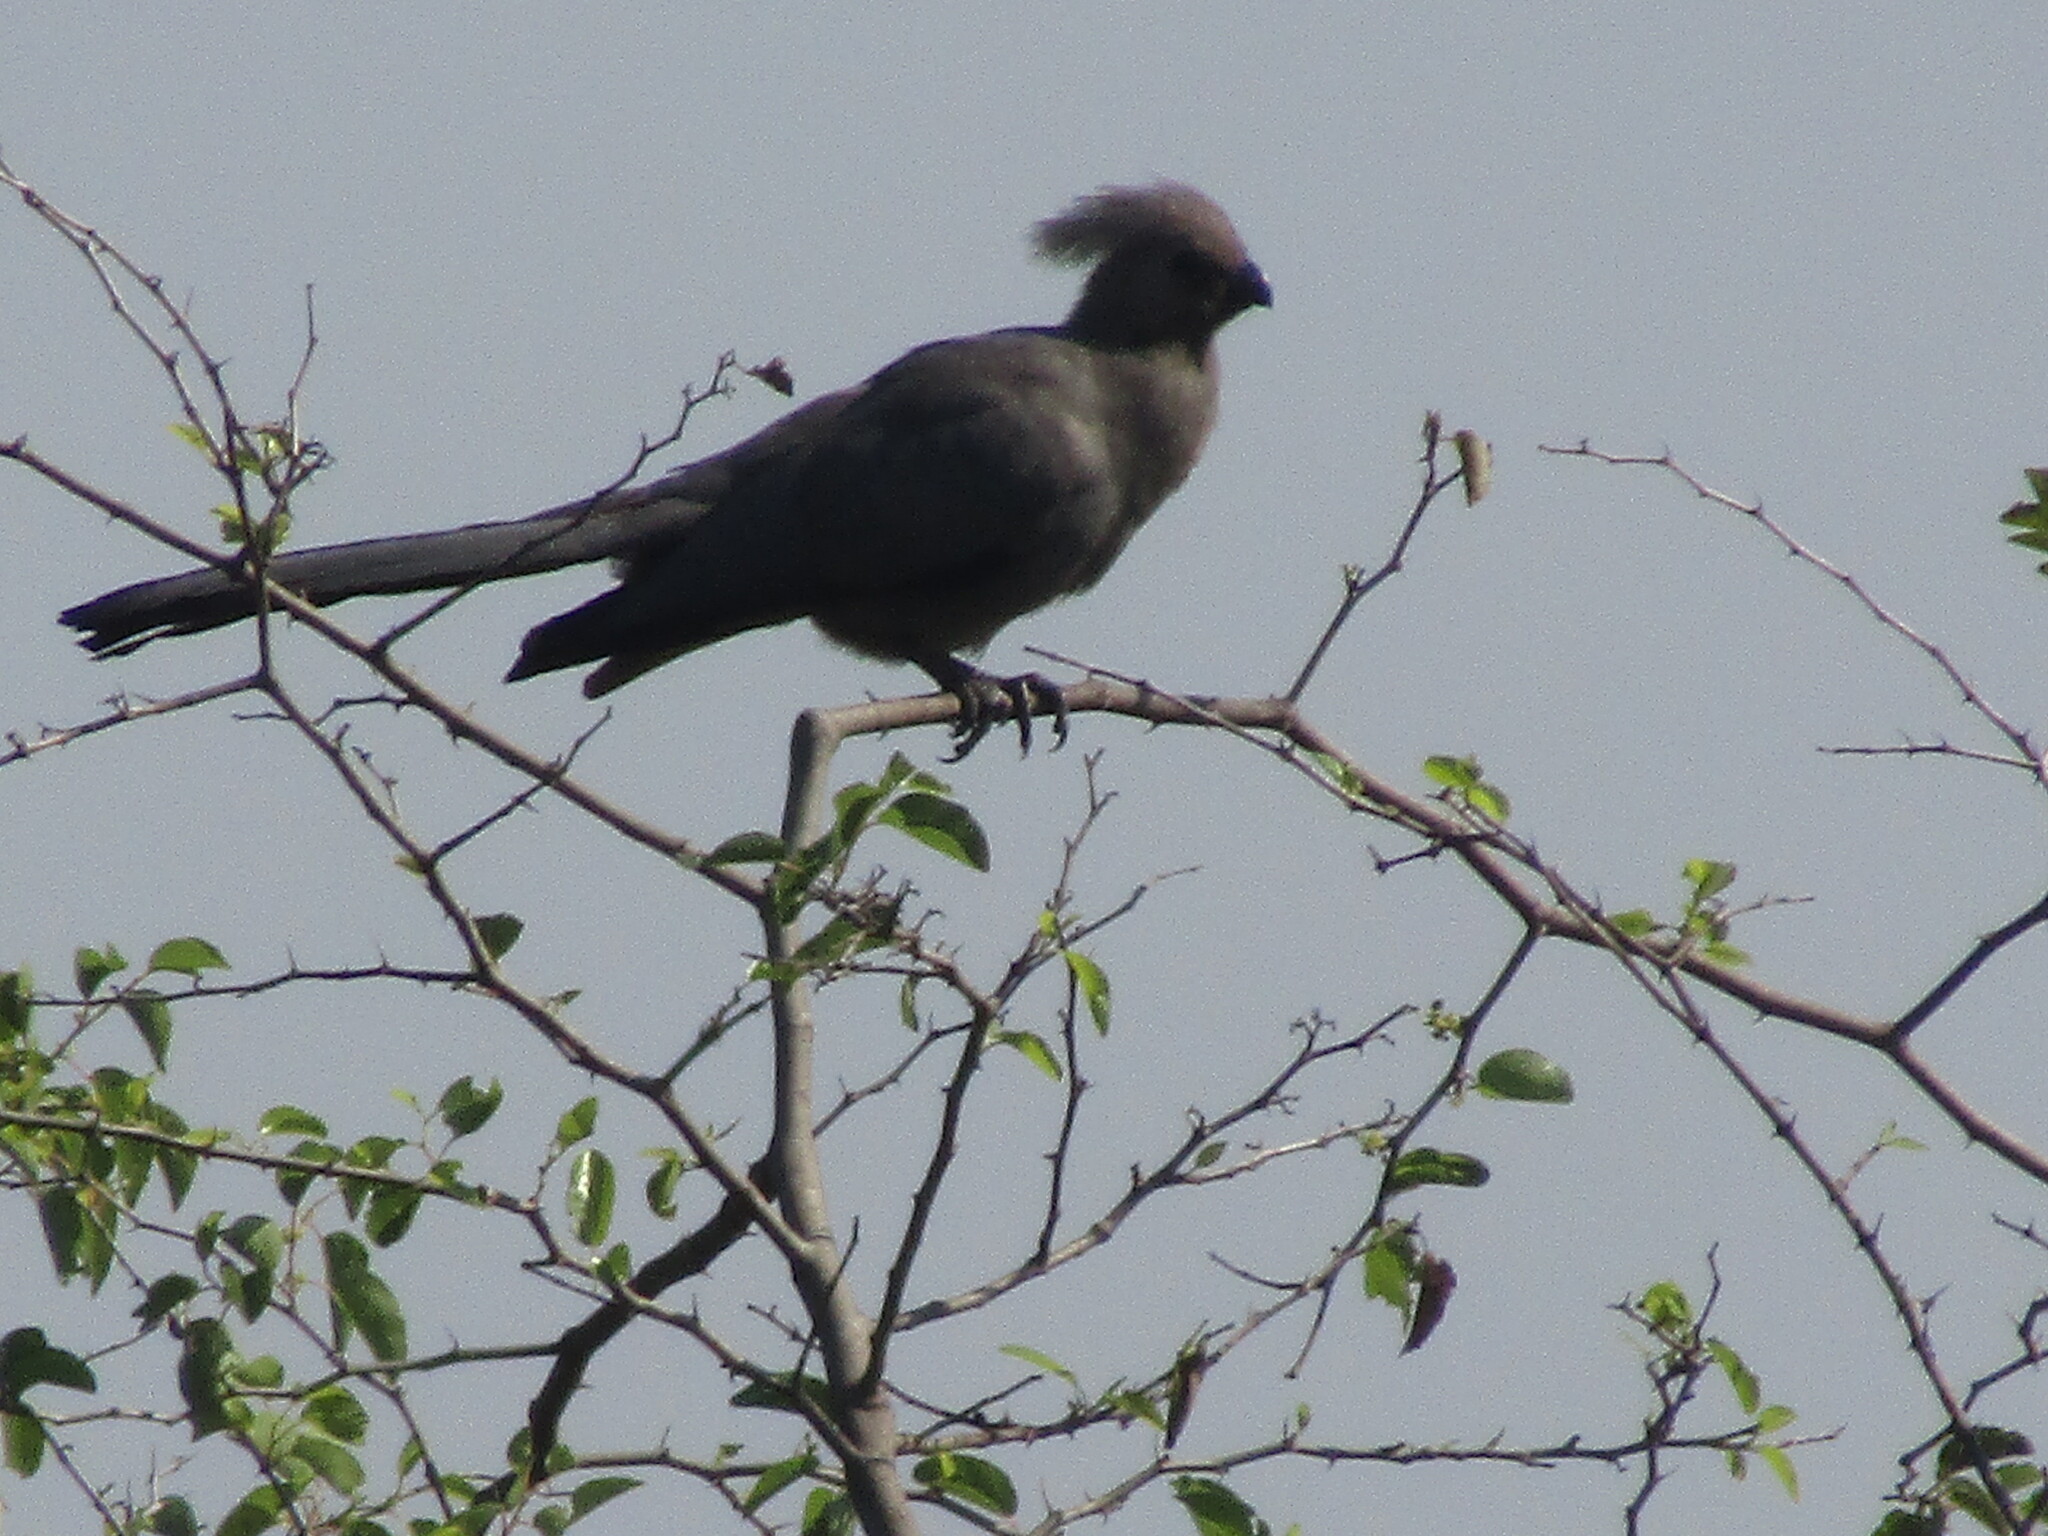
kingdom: Animalia
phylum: Chordata
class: Aves
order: Musophagiformes
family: Musophagidae
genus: Corythaixoides
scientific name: Corythaixoides concolor
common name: Grey go-away-bird
